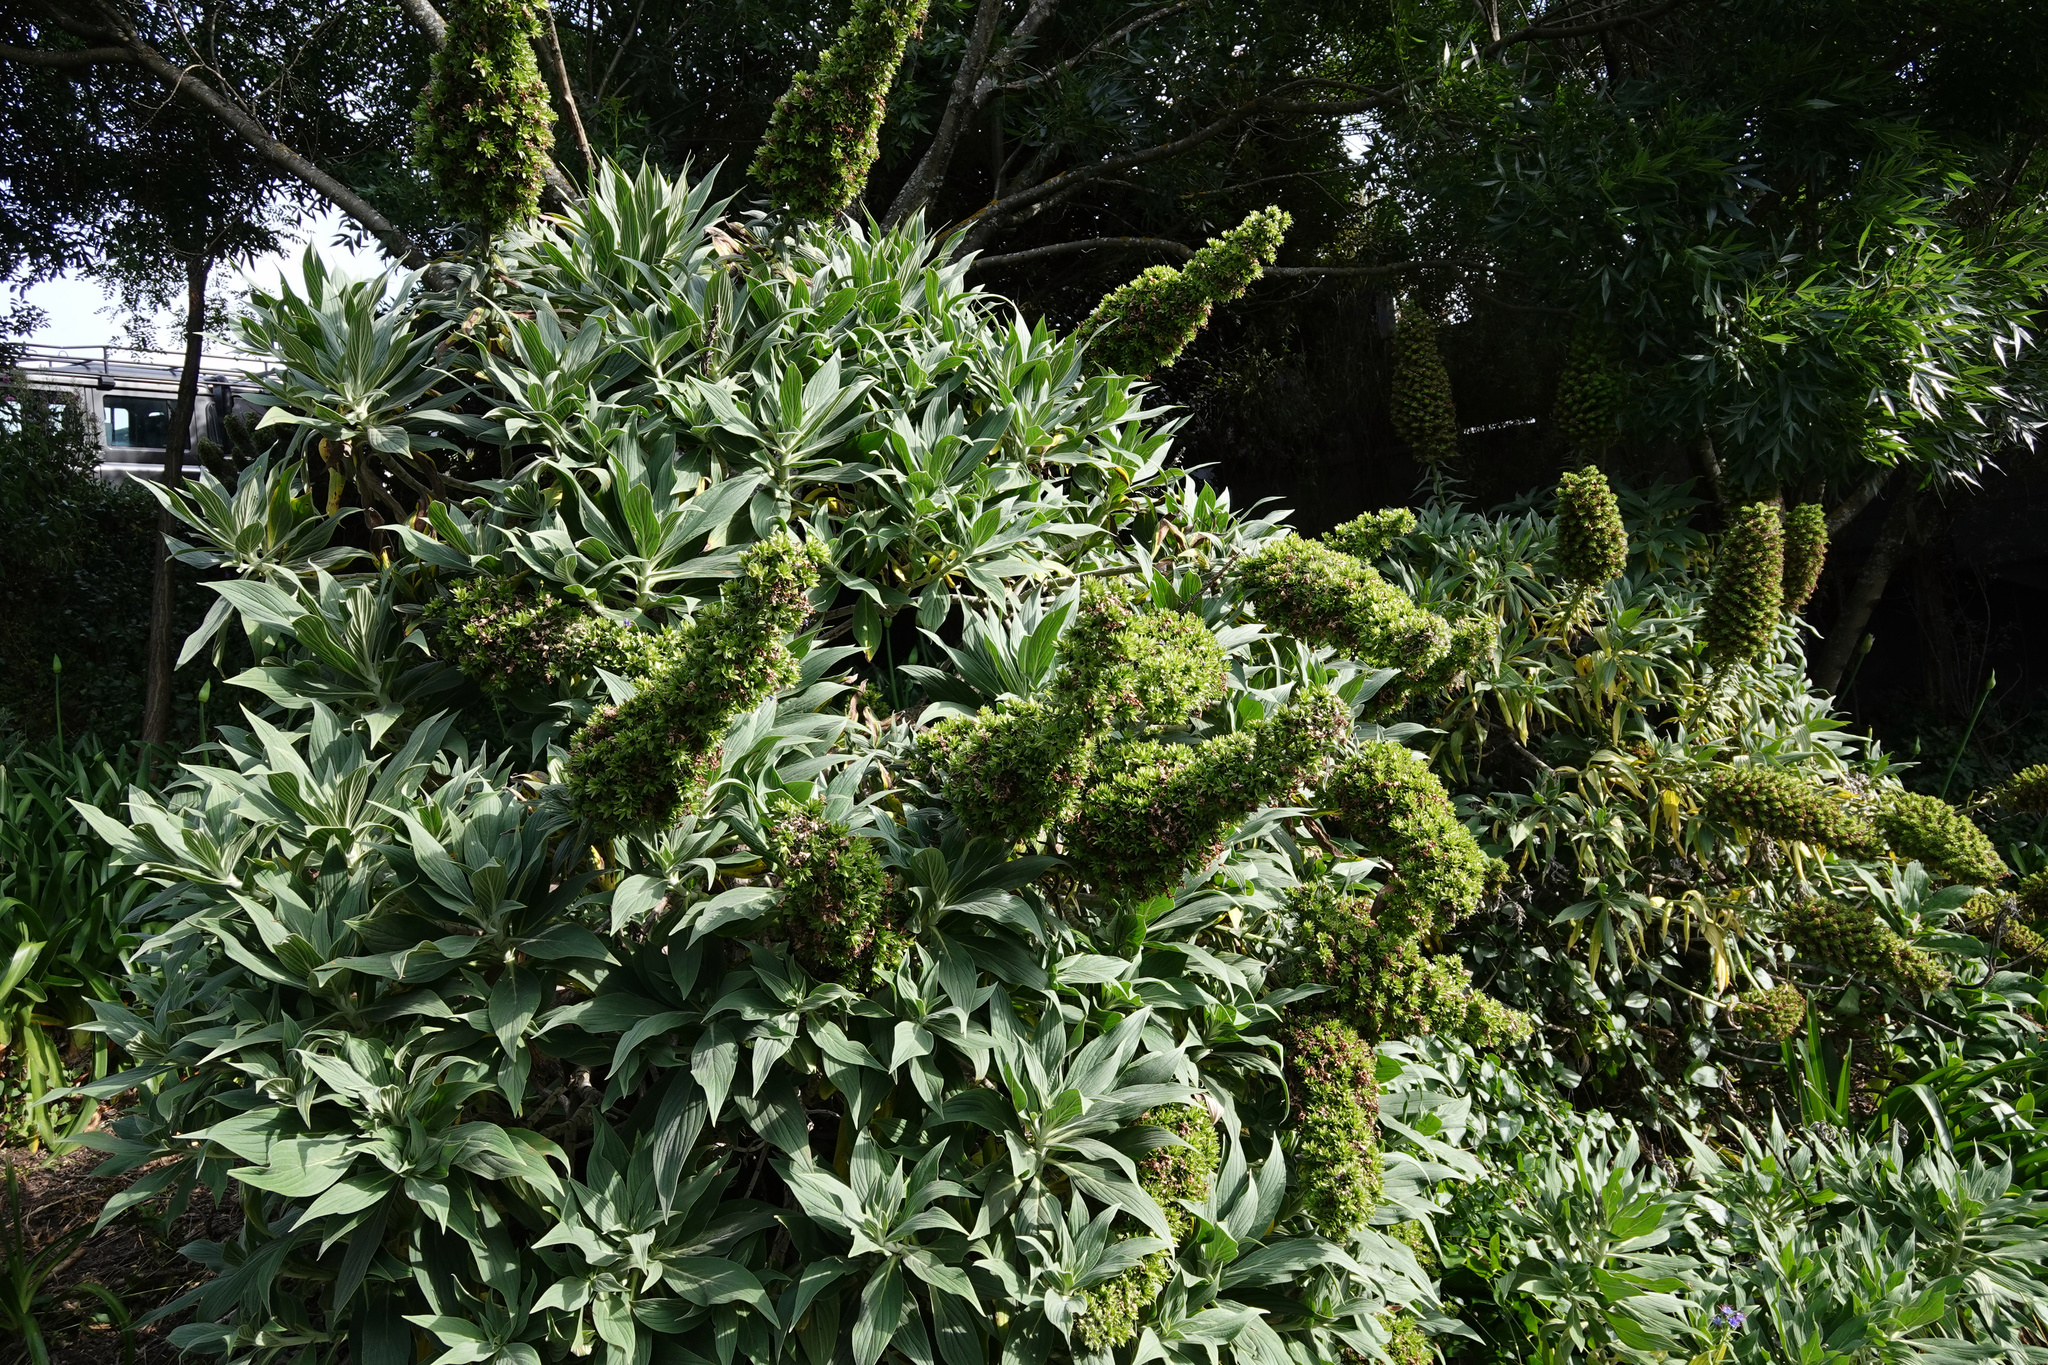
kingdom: Plantae
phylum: Tracheophyta
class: Magnoliopsida
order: Boraginales
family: Boraginaceae
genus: Echium
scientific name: Echium candicans
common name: Pride of madeira
